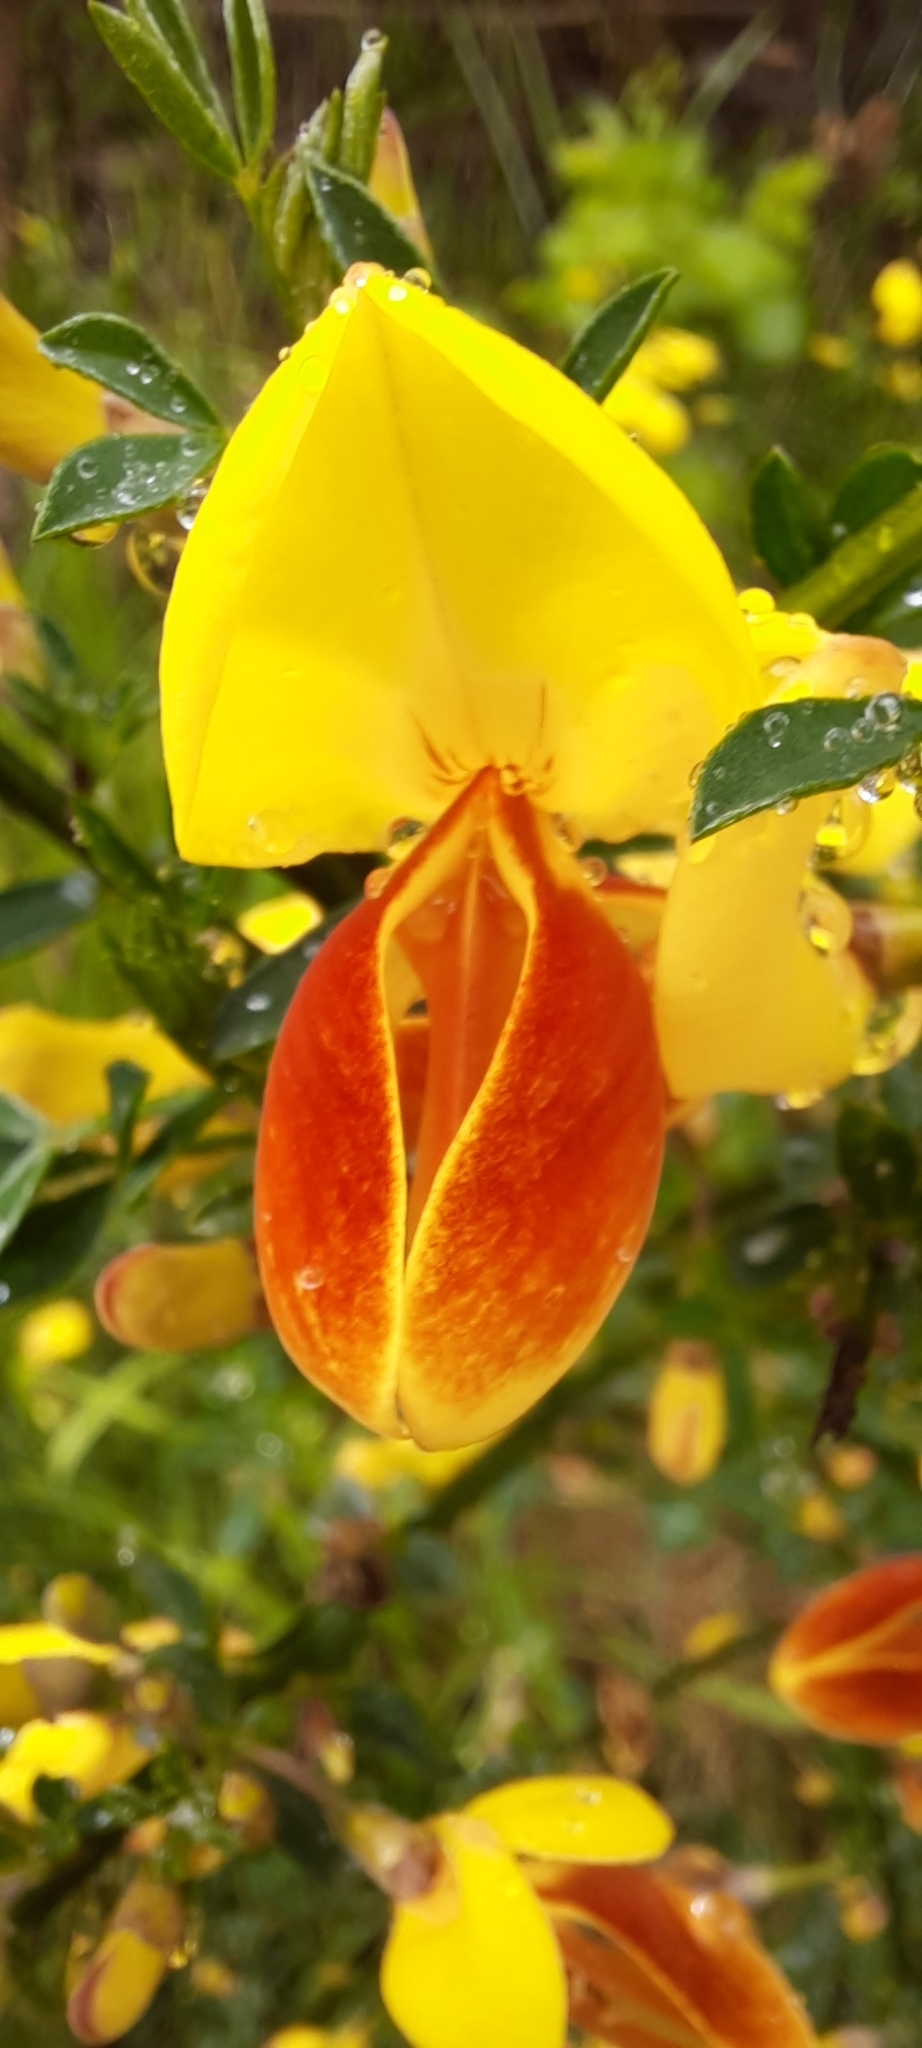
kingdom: Plantae
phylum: Tracheophyta
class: Magnoliopsida
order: Fabales
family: Fabaceae
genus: Cytisus
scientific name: Cytisus scoparius
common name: Scotch broom
